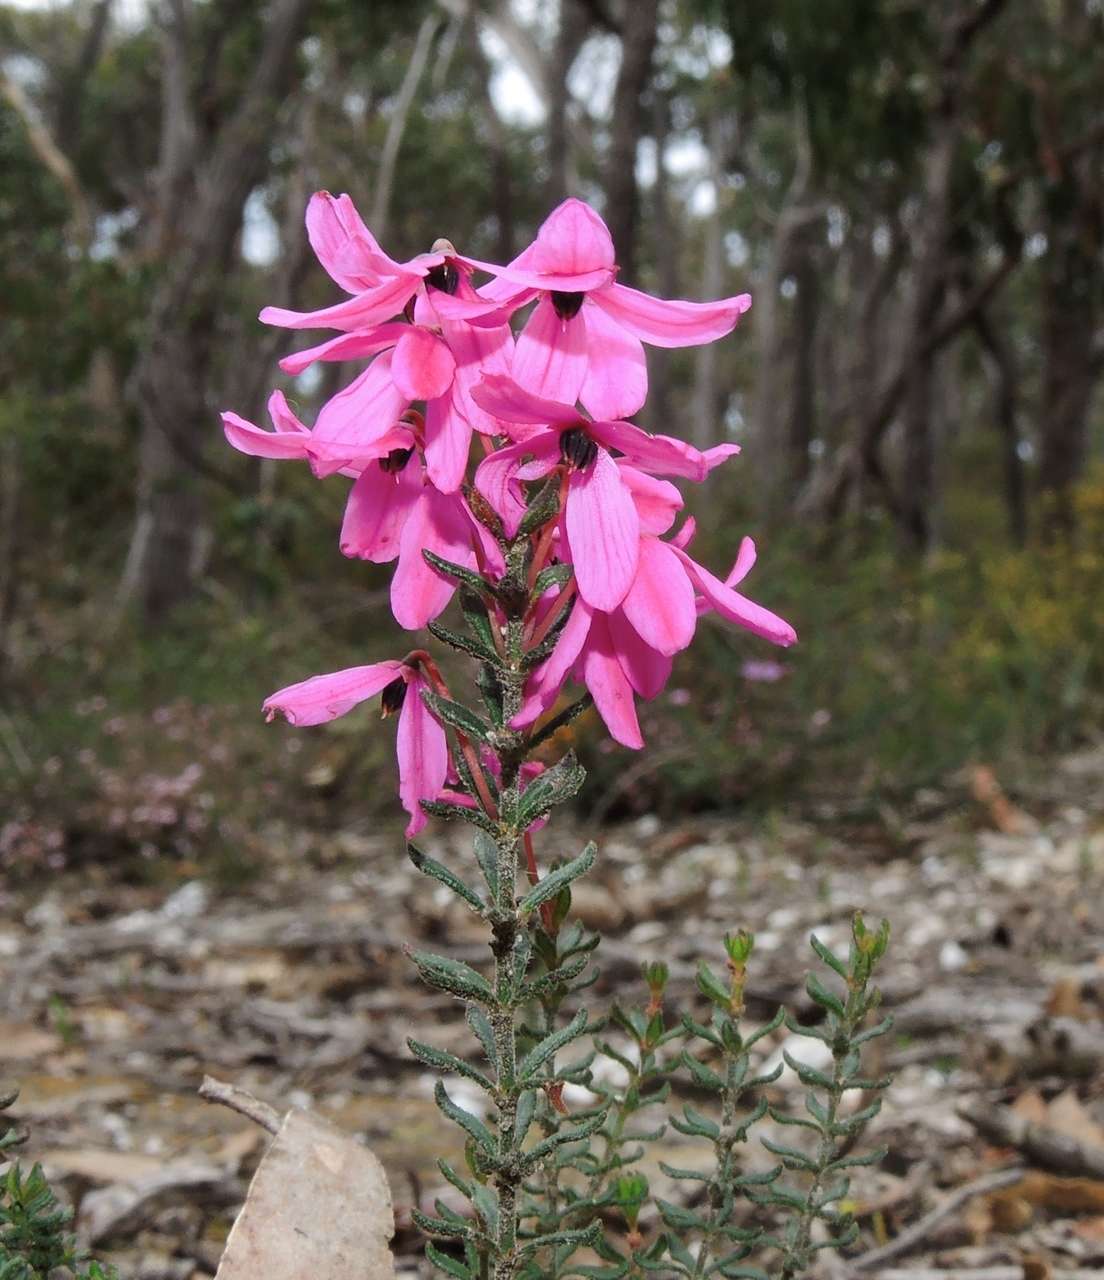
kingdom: Plantae
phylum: Tracheophyta
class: Magnoliopsida
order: Oxalidales
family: Elaeocarpaceae
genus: Tetratheca
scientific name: Tetratheca bauerifolia
